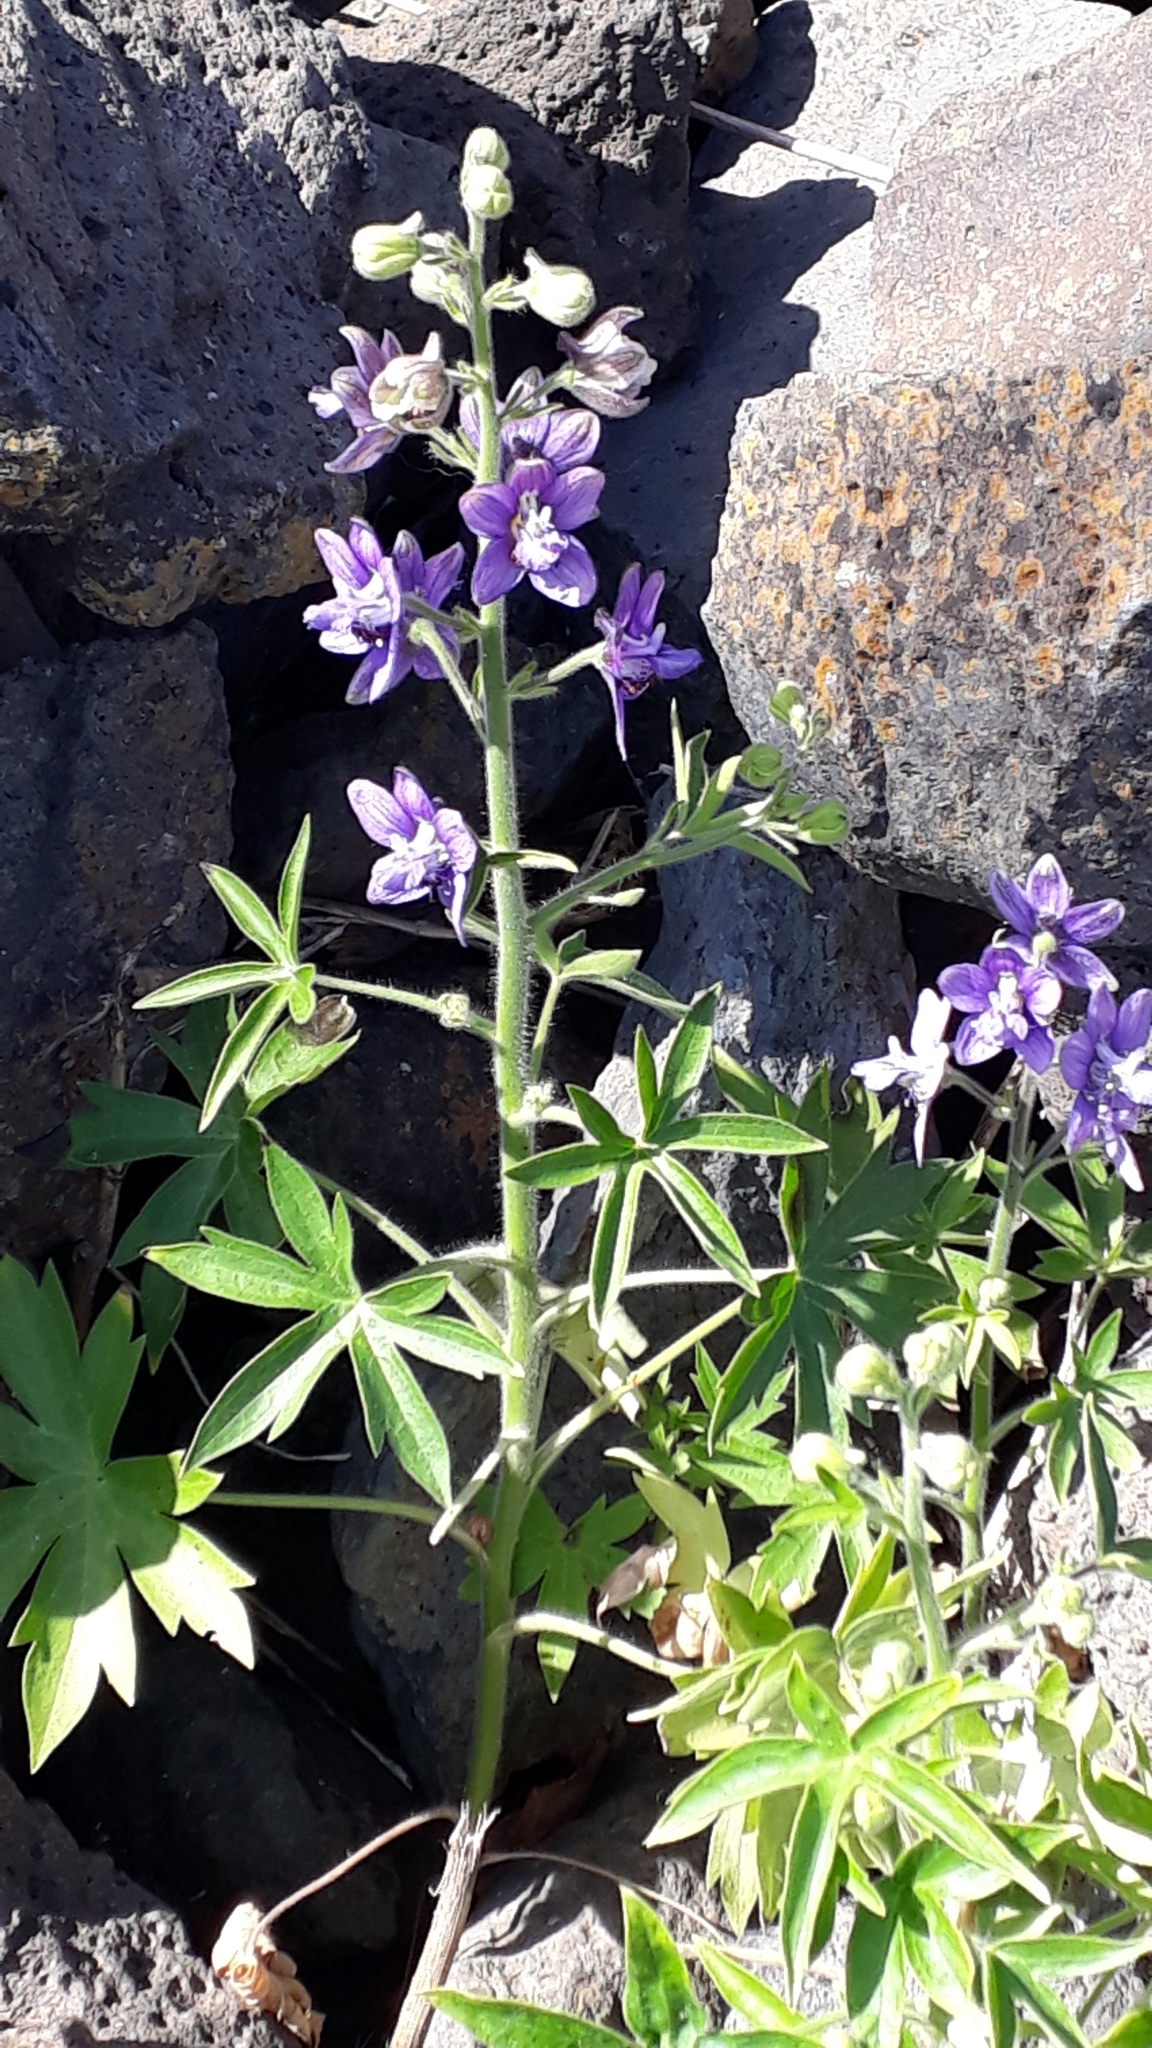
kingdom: Plantae
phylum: Tracheophyta
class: Magnoliopsida
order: Ranunculales
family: Ranunculaceae
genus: Staphisagria
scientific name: Staphisagria macrosperma
